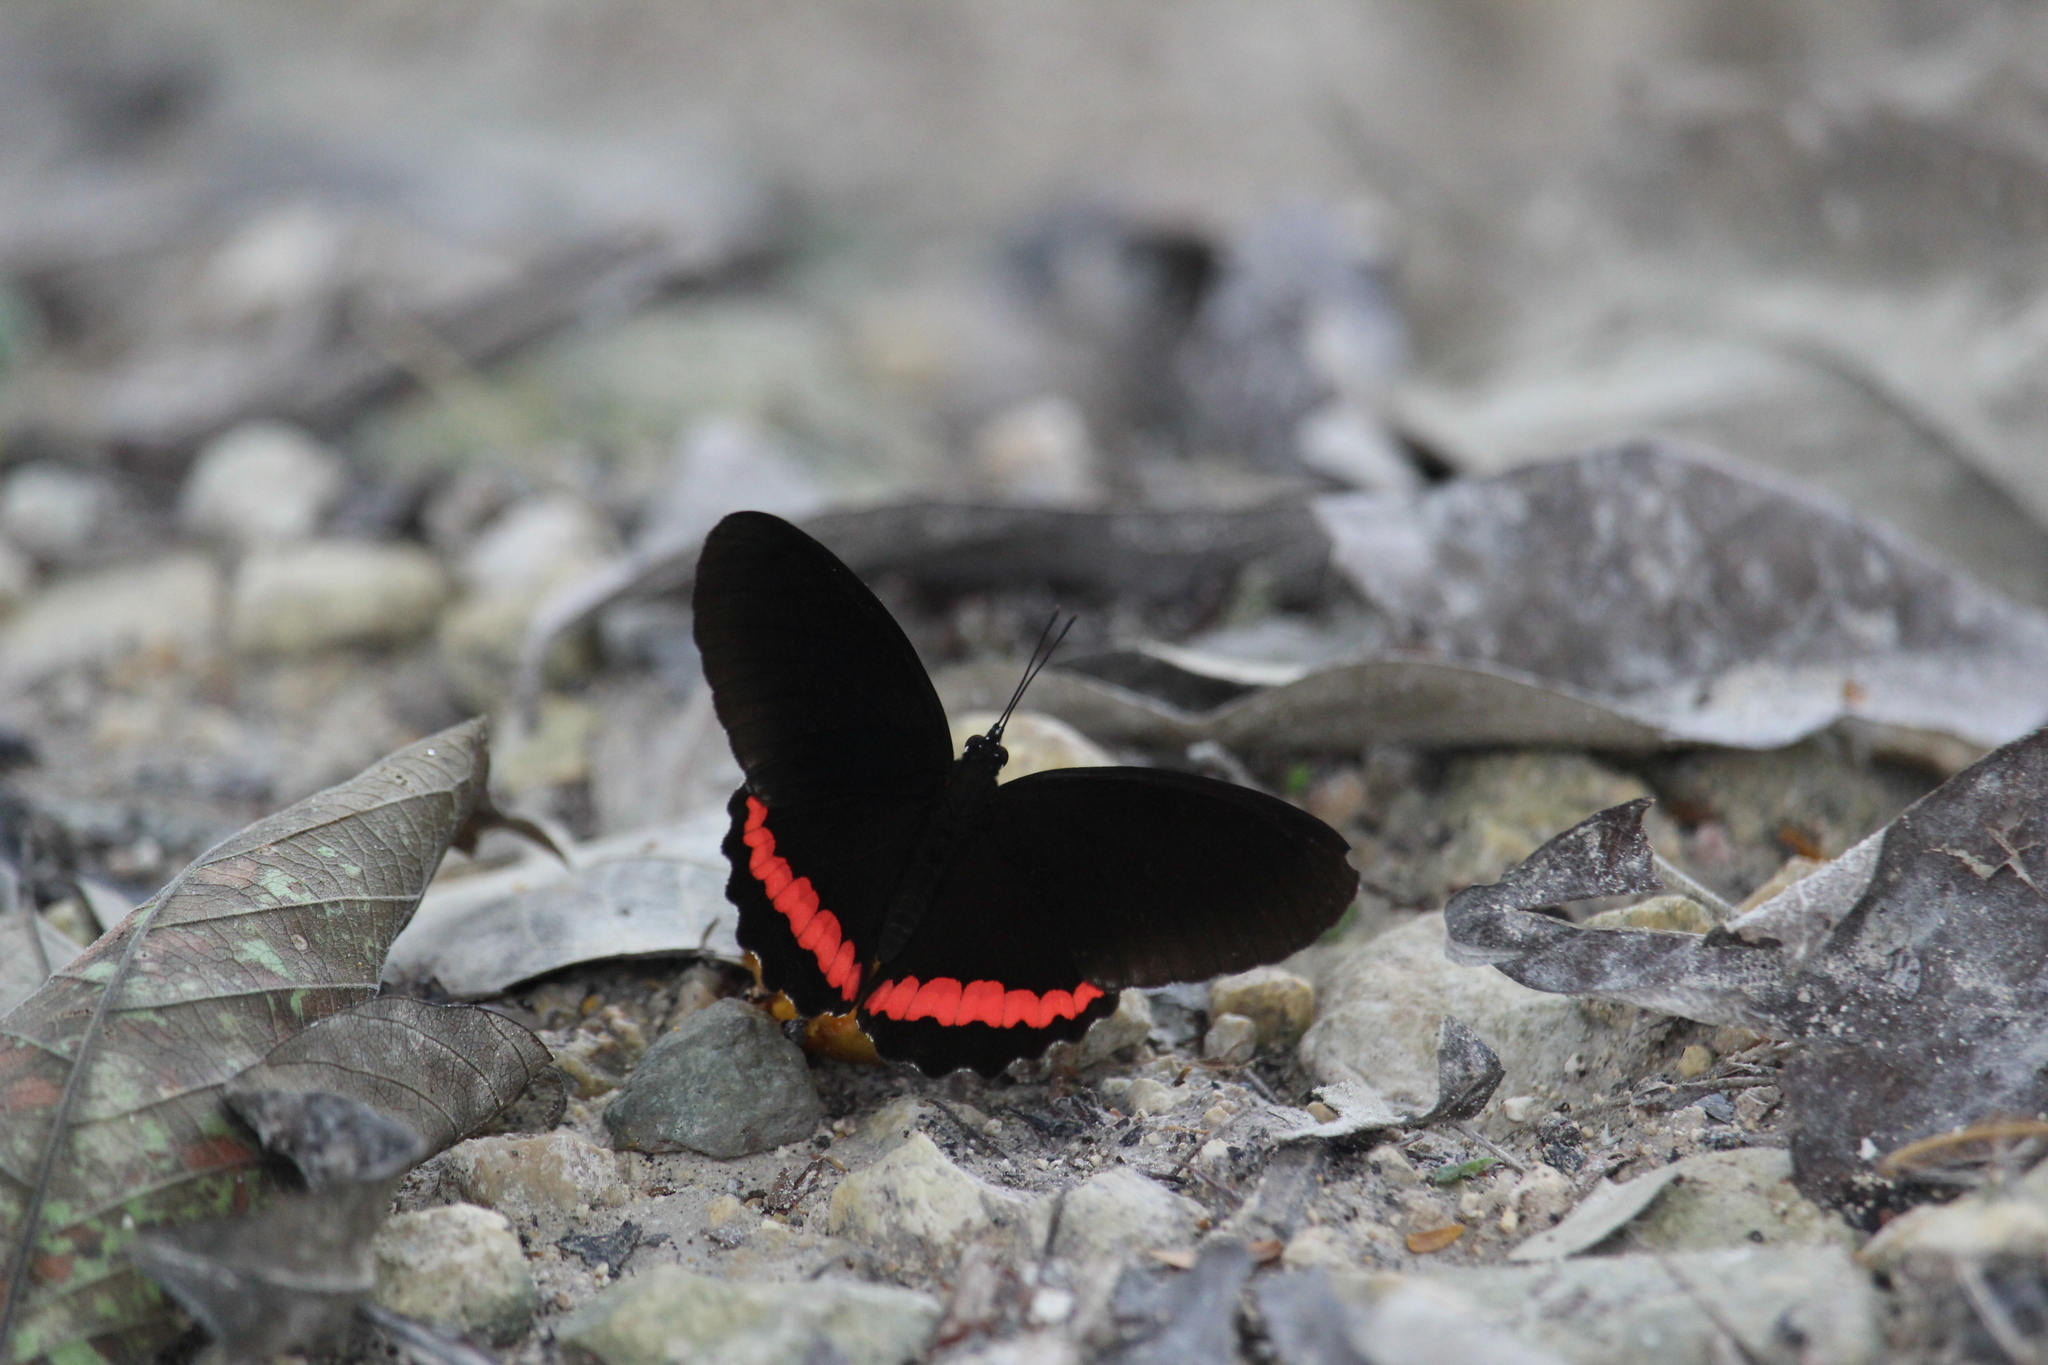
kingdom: Animalia
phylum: Arthropoda
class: Insecta
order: Lepidoptera
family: Nymphalidae
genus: Biblis
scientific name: Biblis aganisa
